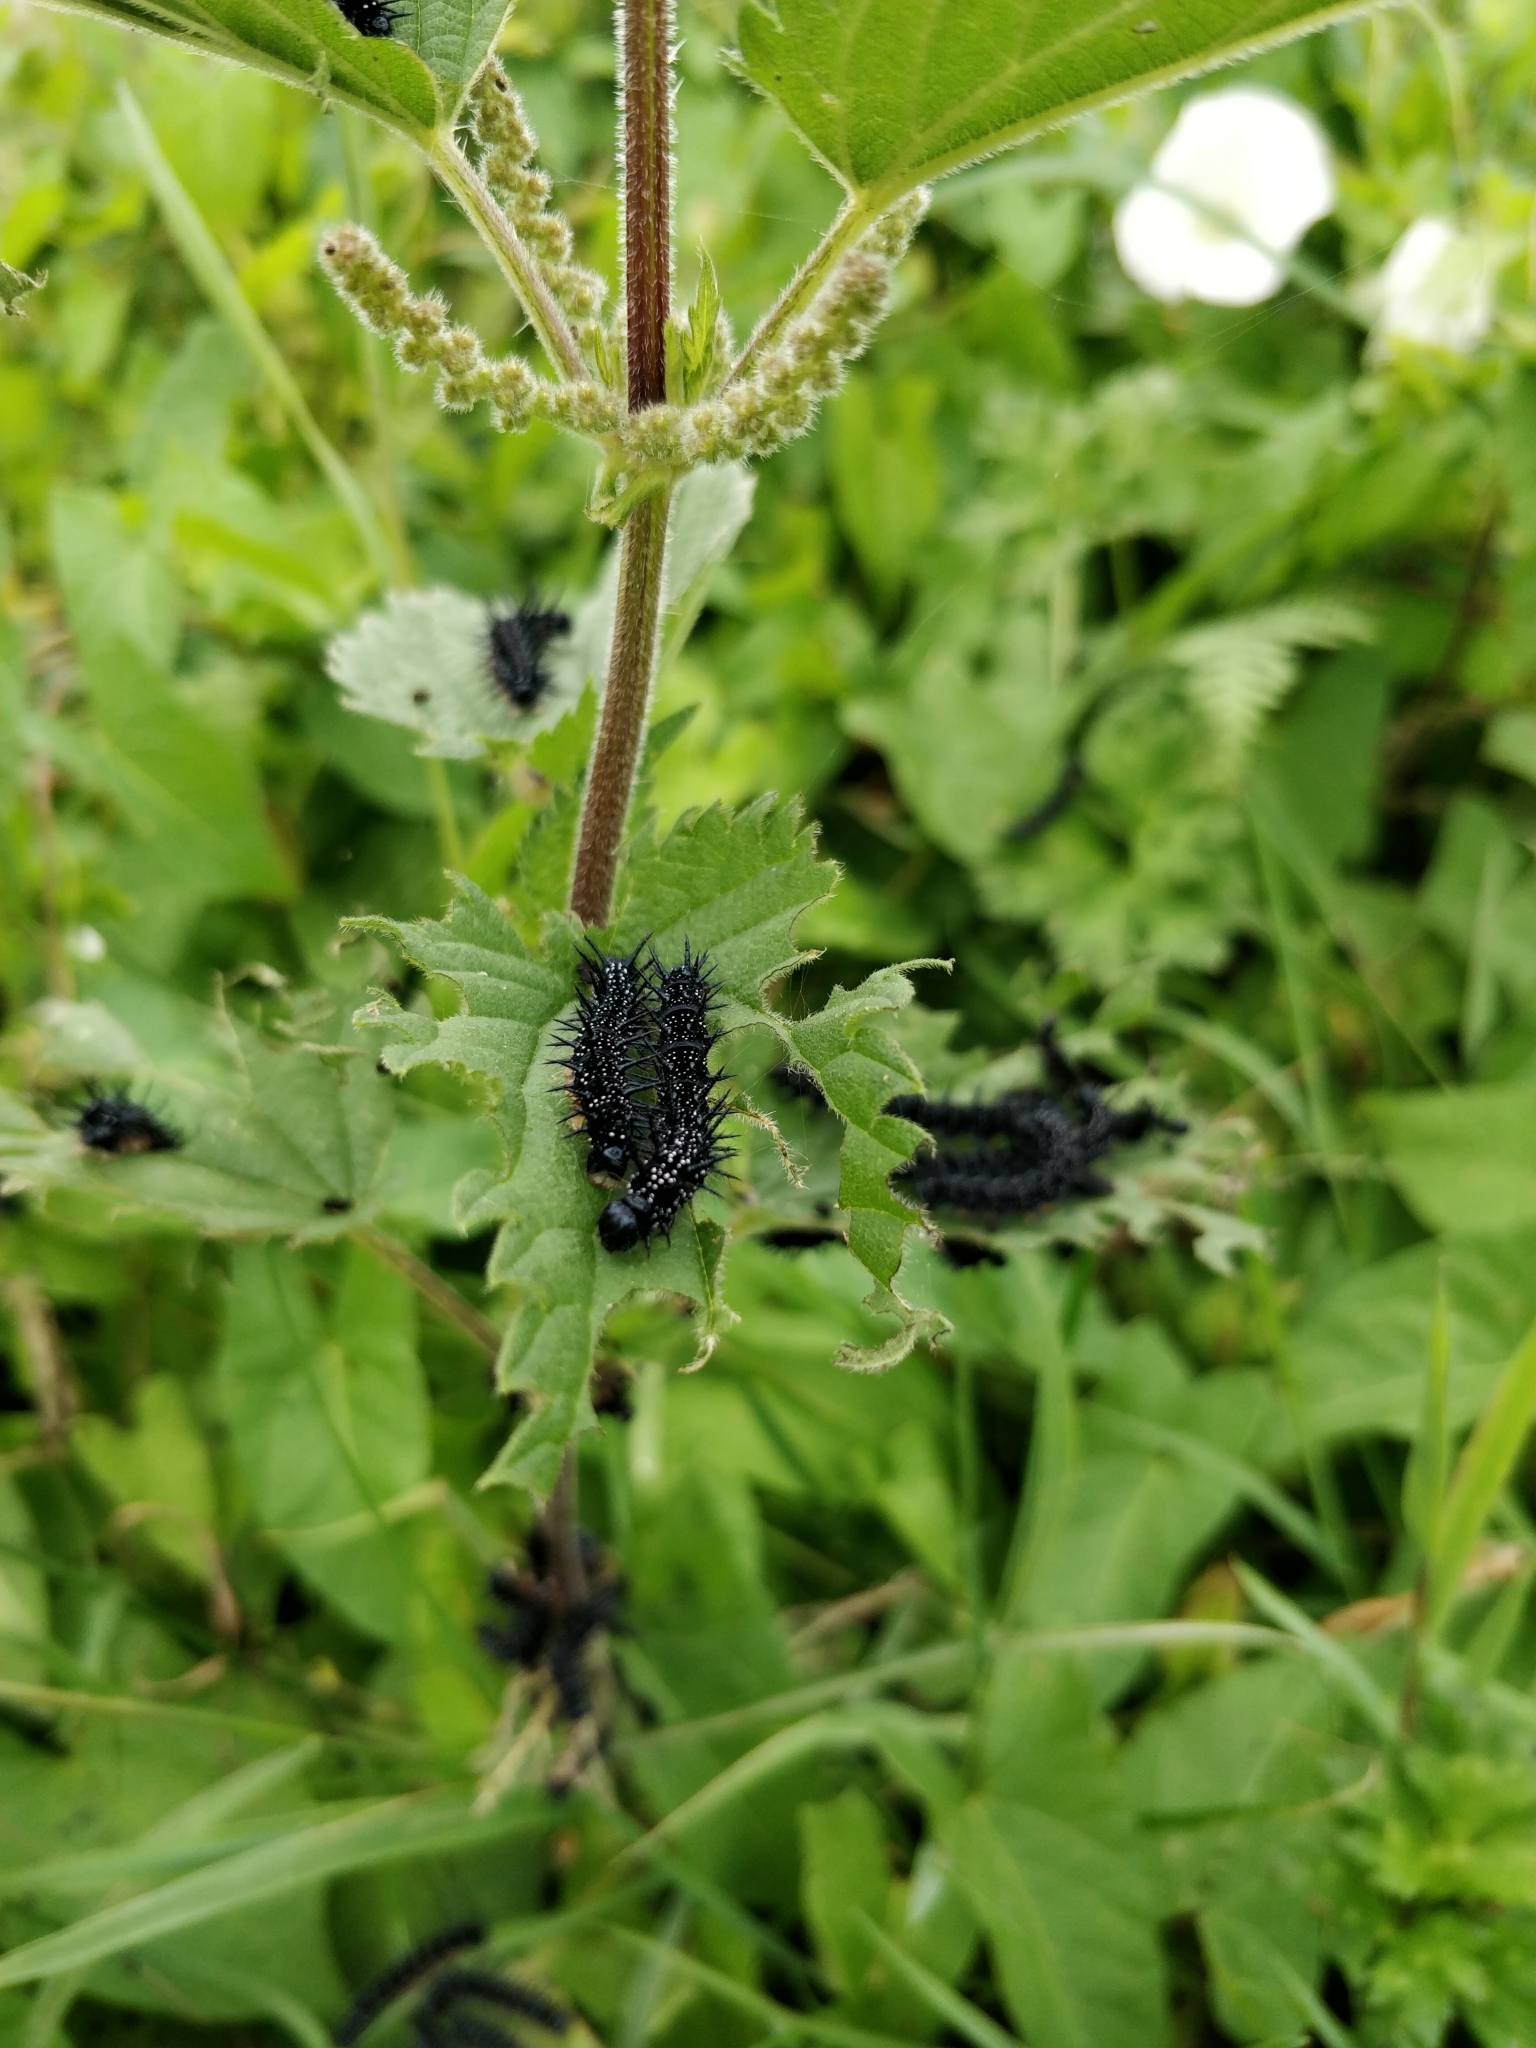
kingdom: Animalia
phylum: Arthropoda
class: Insecta
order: Lepidoptera
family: Nymphalidae
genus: Aglais
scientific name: Aglais io
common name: Peacock
